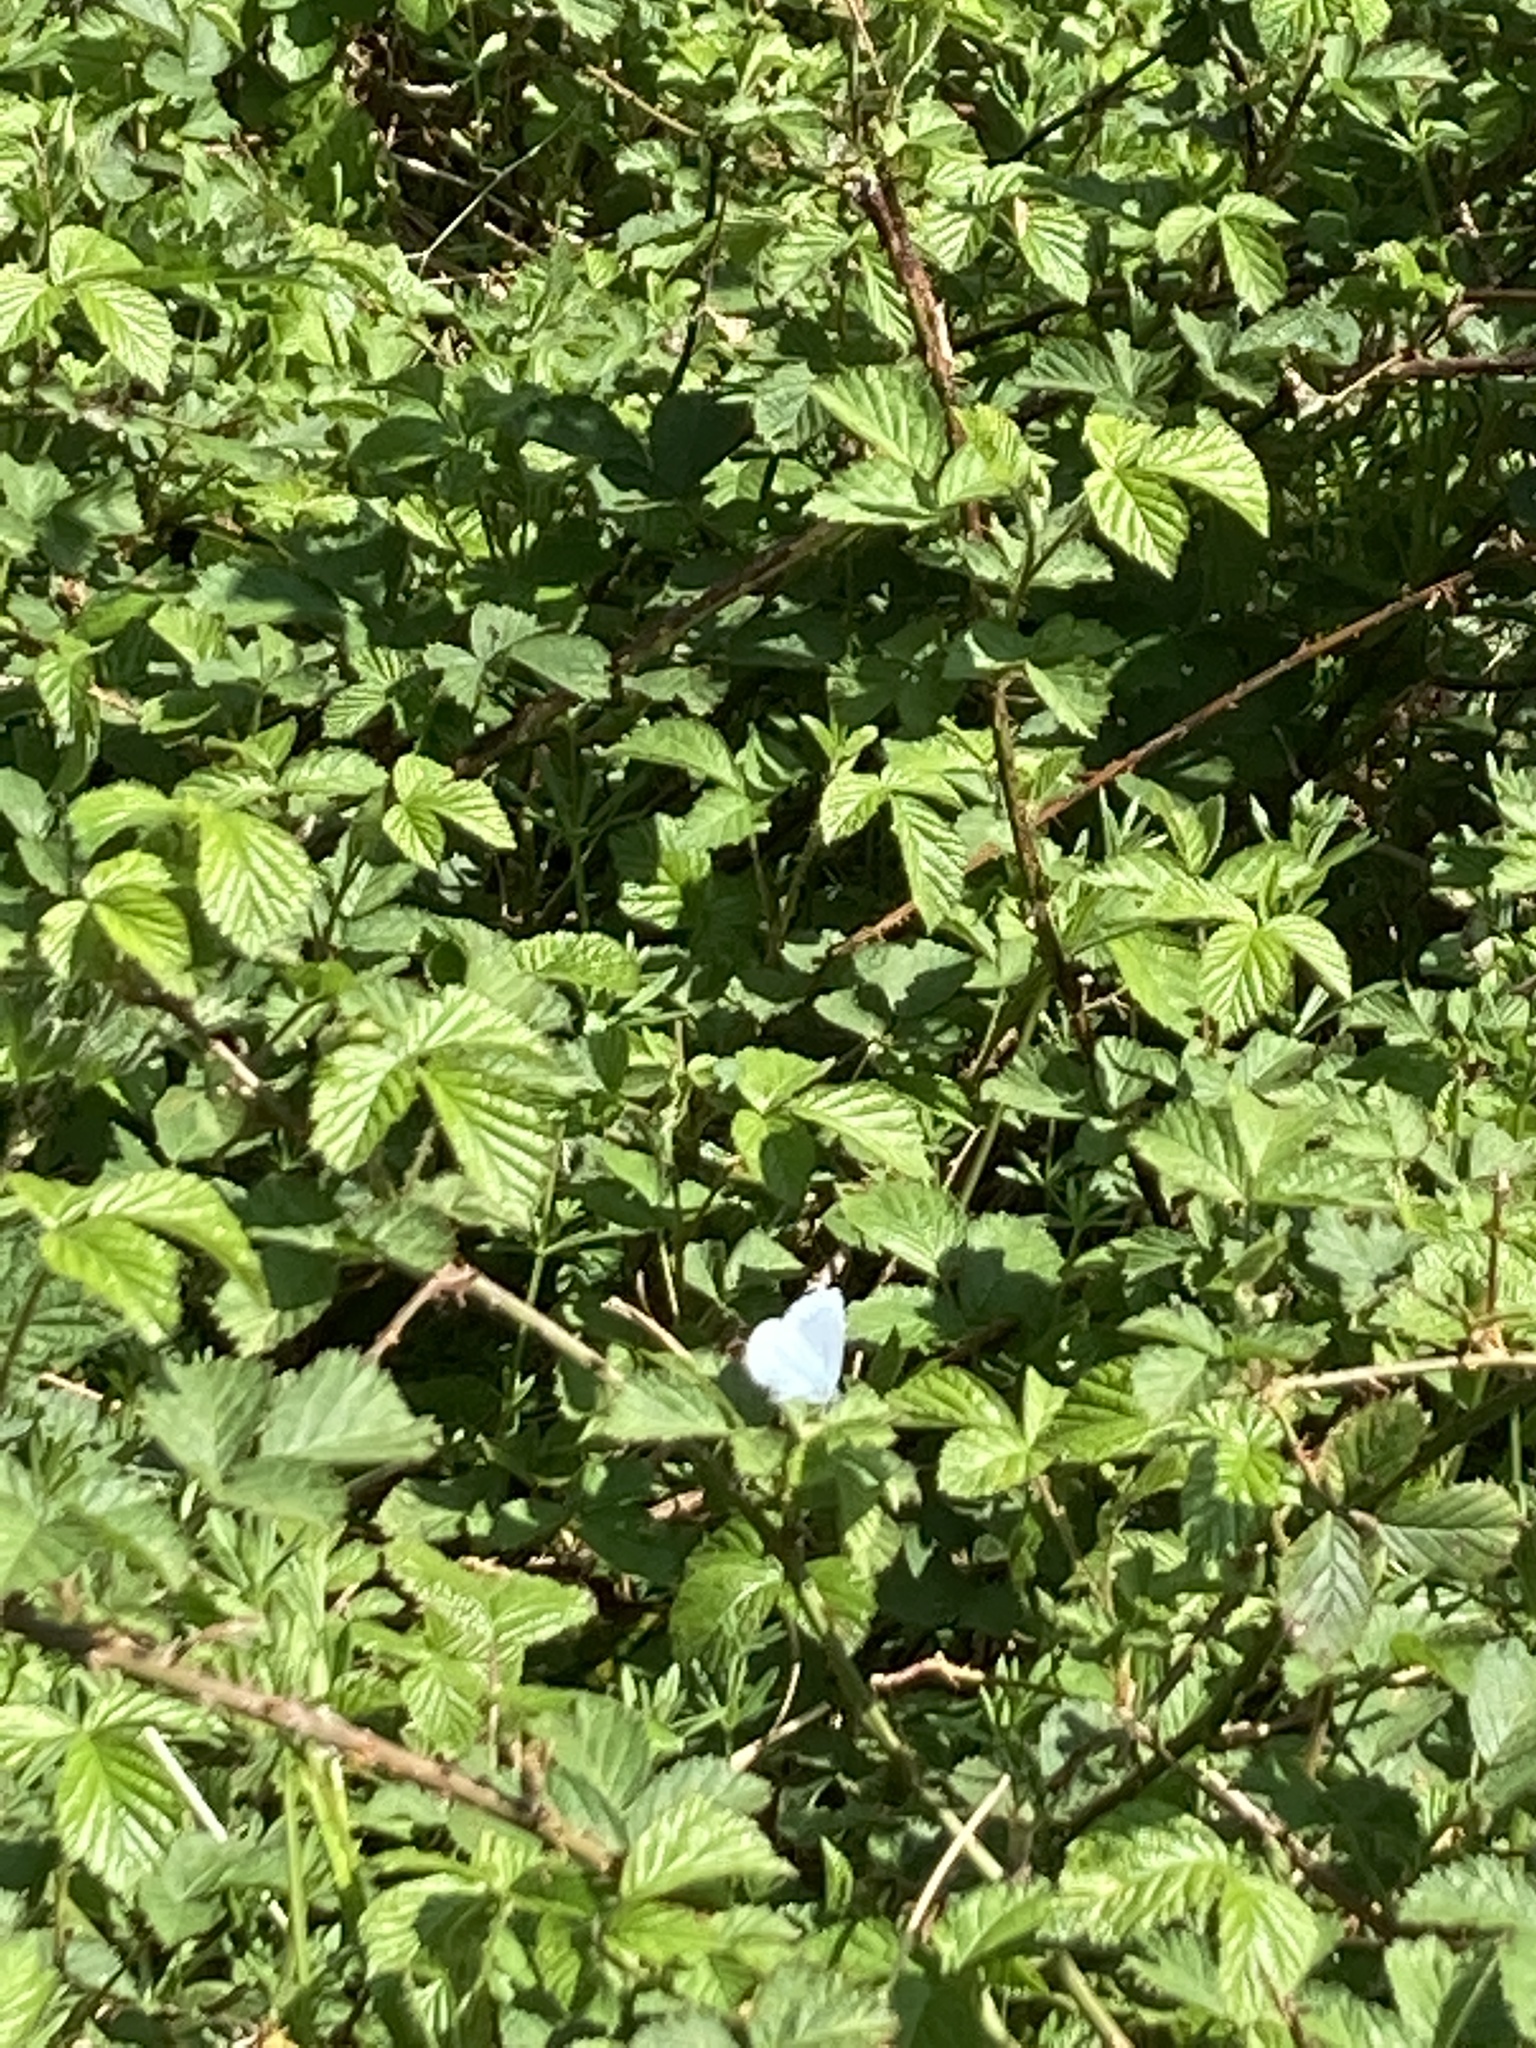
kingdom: Animalia
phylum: Arthropoda
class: Insecta
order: Lepidoptera
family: Lycaenidae
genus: Celastrina
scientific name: Celastrina argiolus
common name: Holly blue
